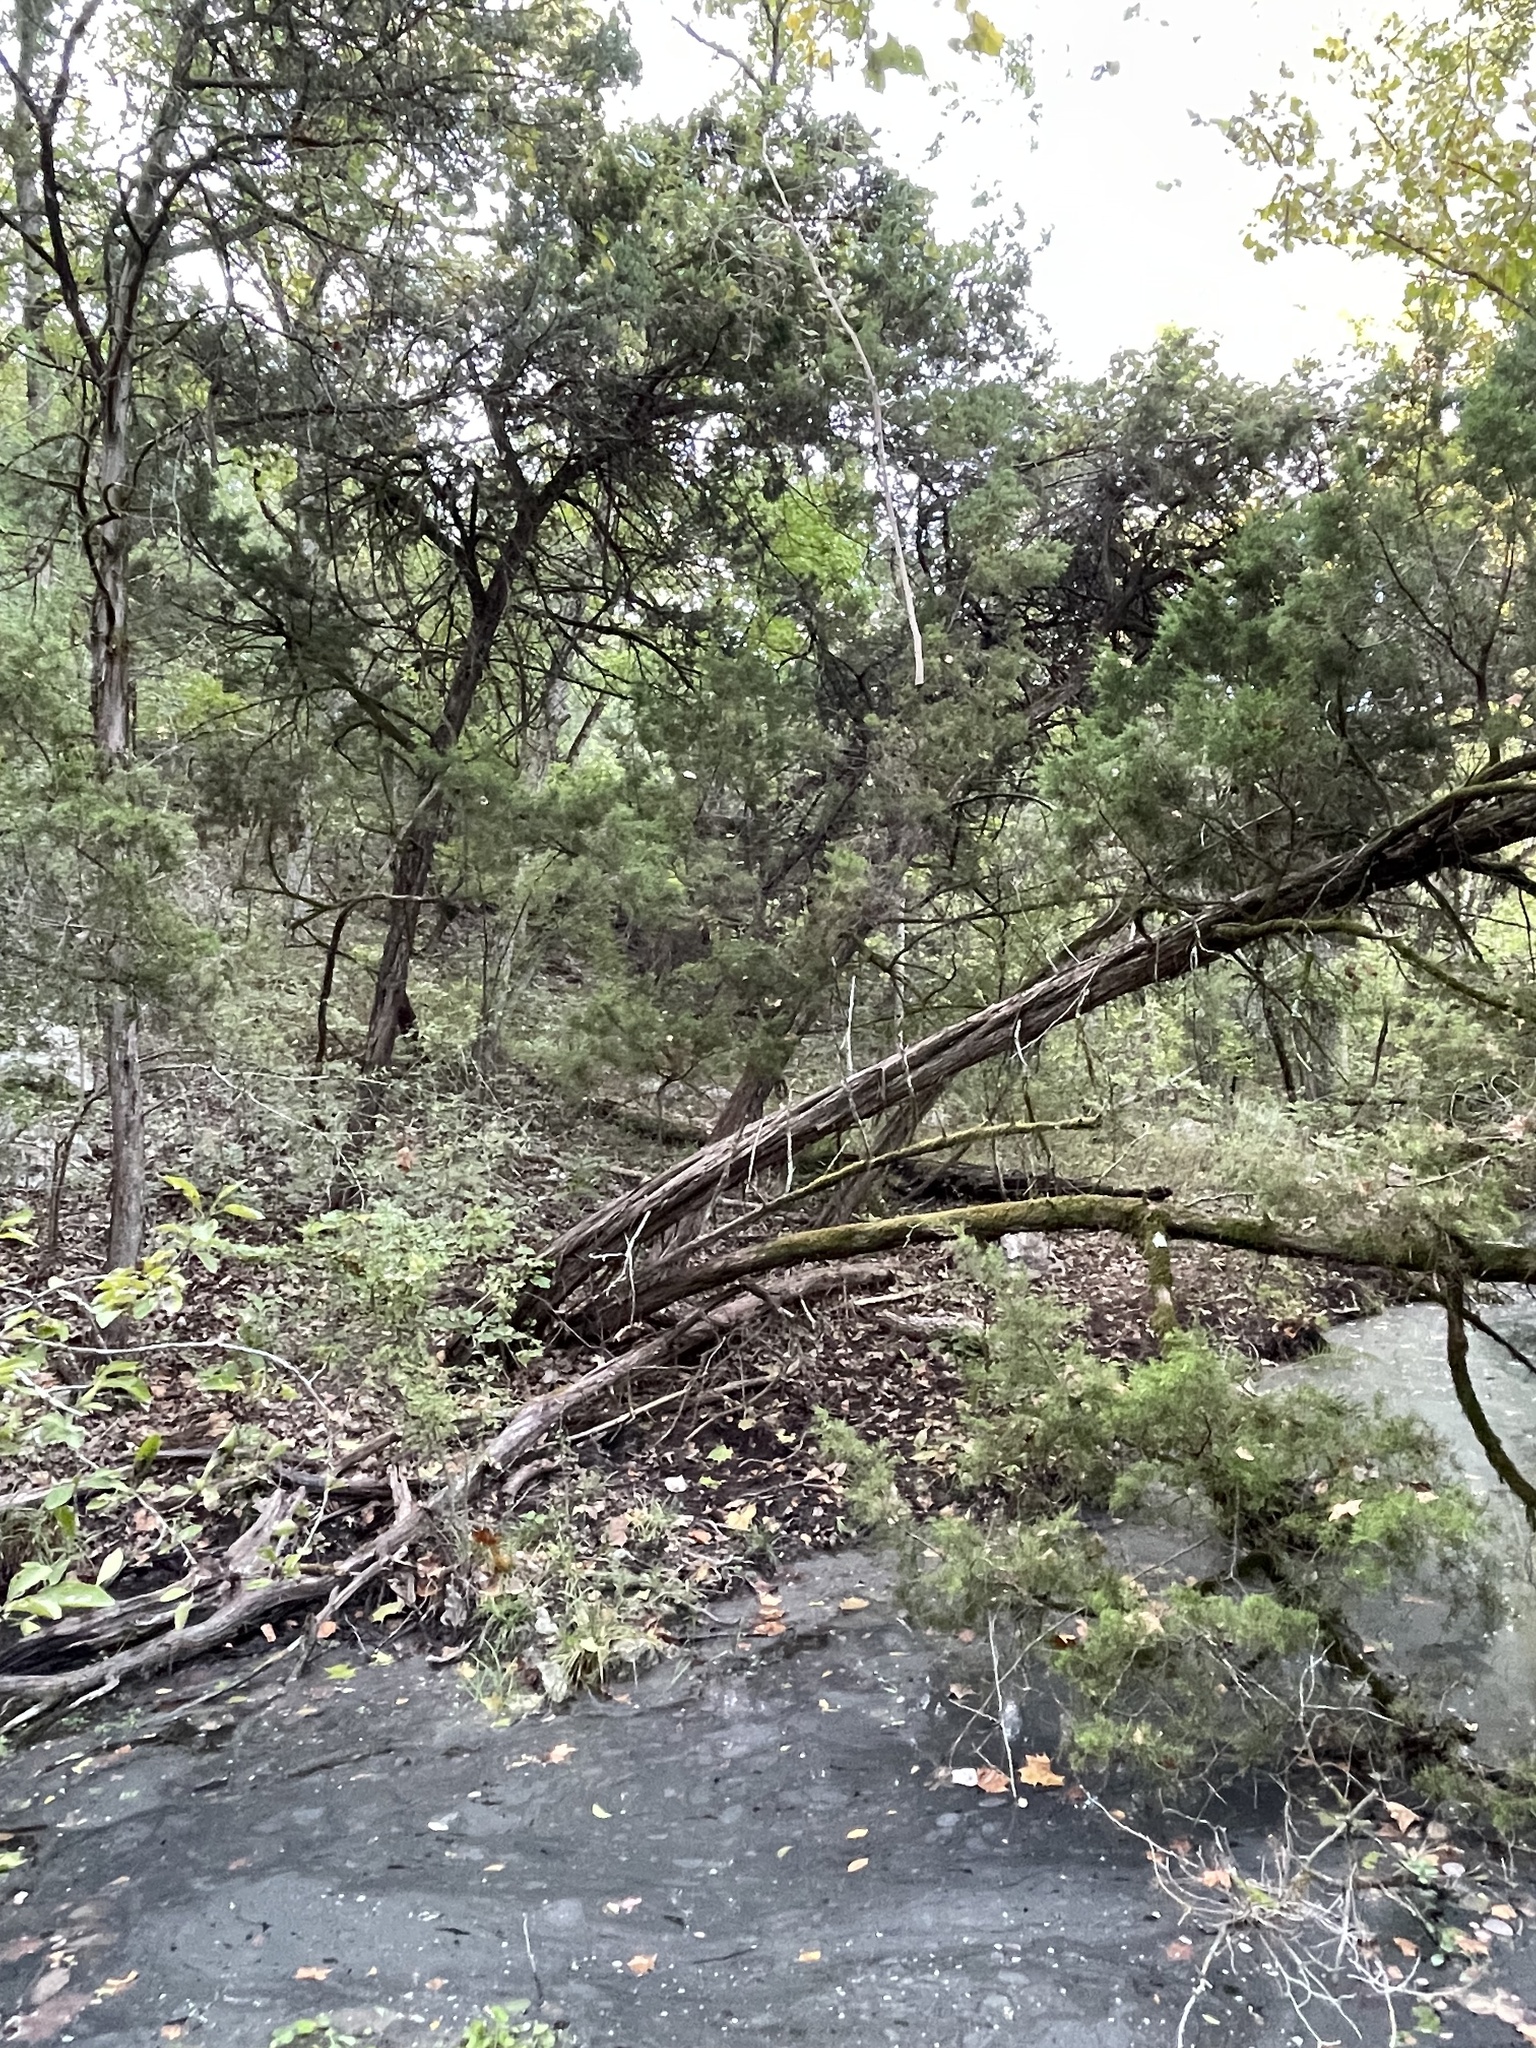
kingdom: Plantae
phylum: Tracheophyta
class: Pinopsida
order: Pinales
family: Cupressaceae
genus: Juniperus
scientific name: Juniperus ashei
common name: Mexican juniper
